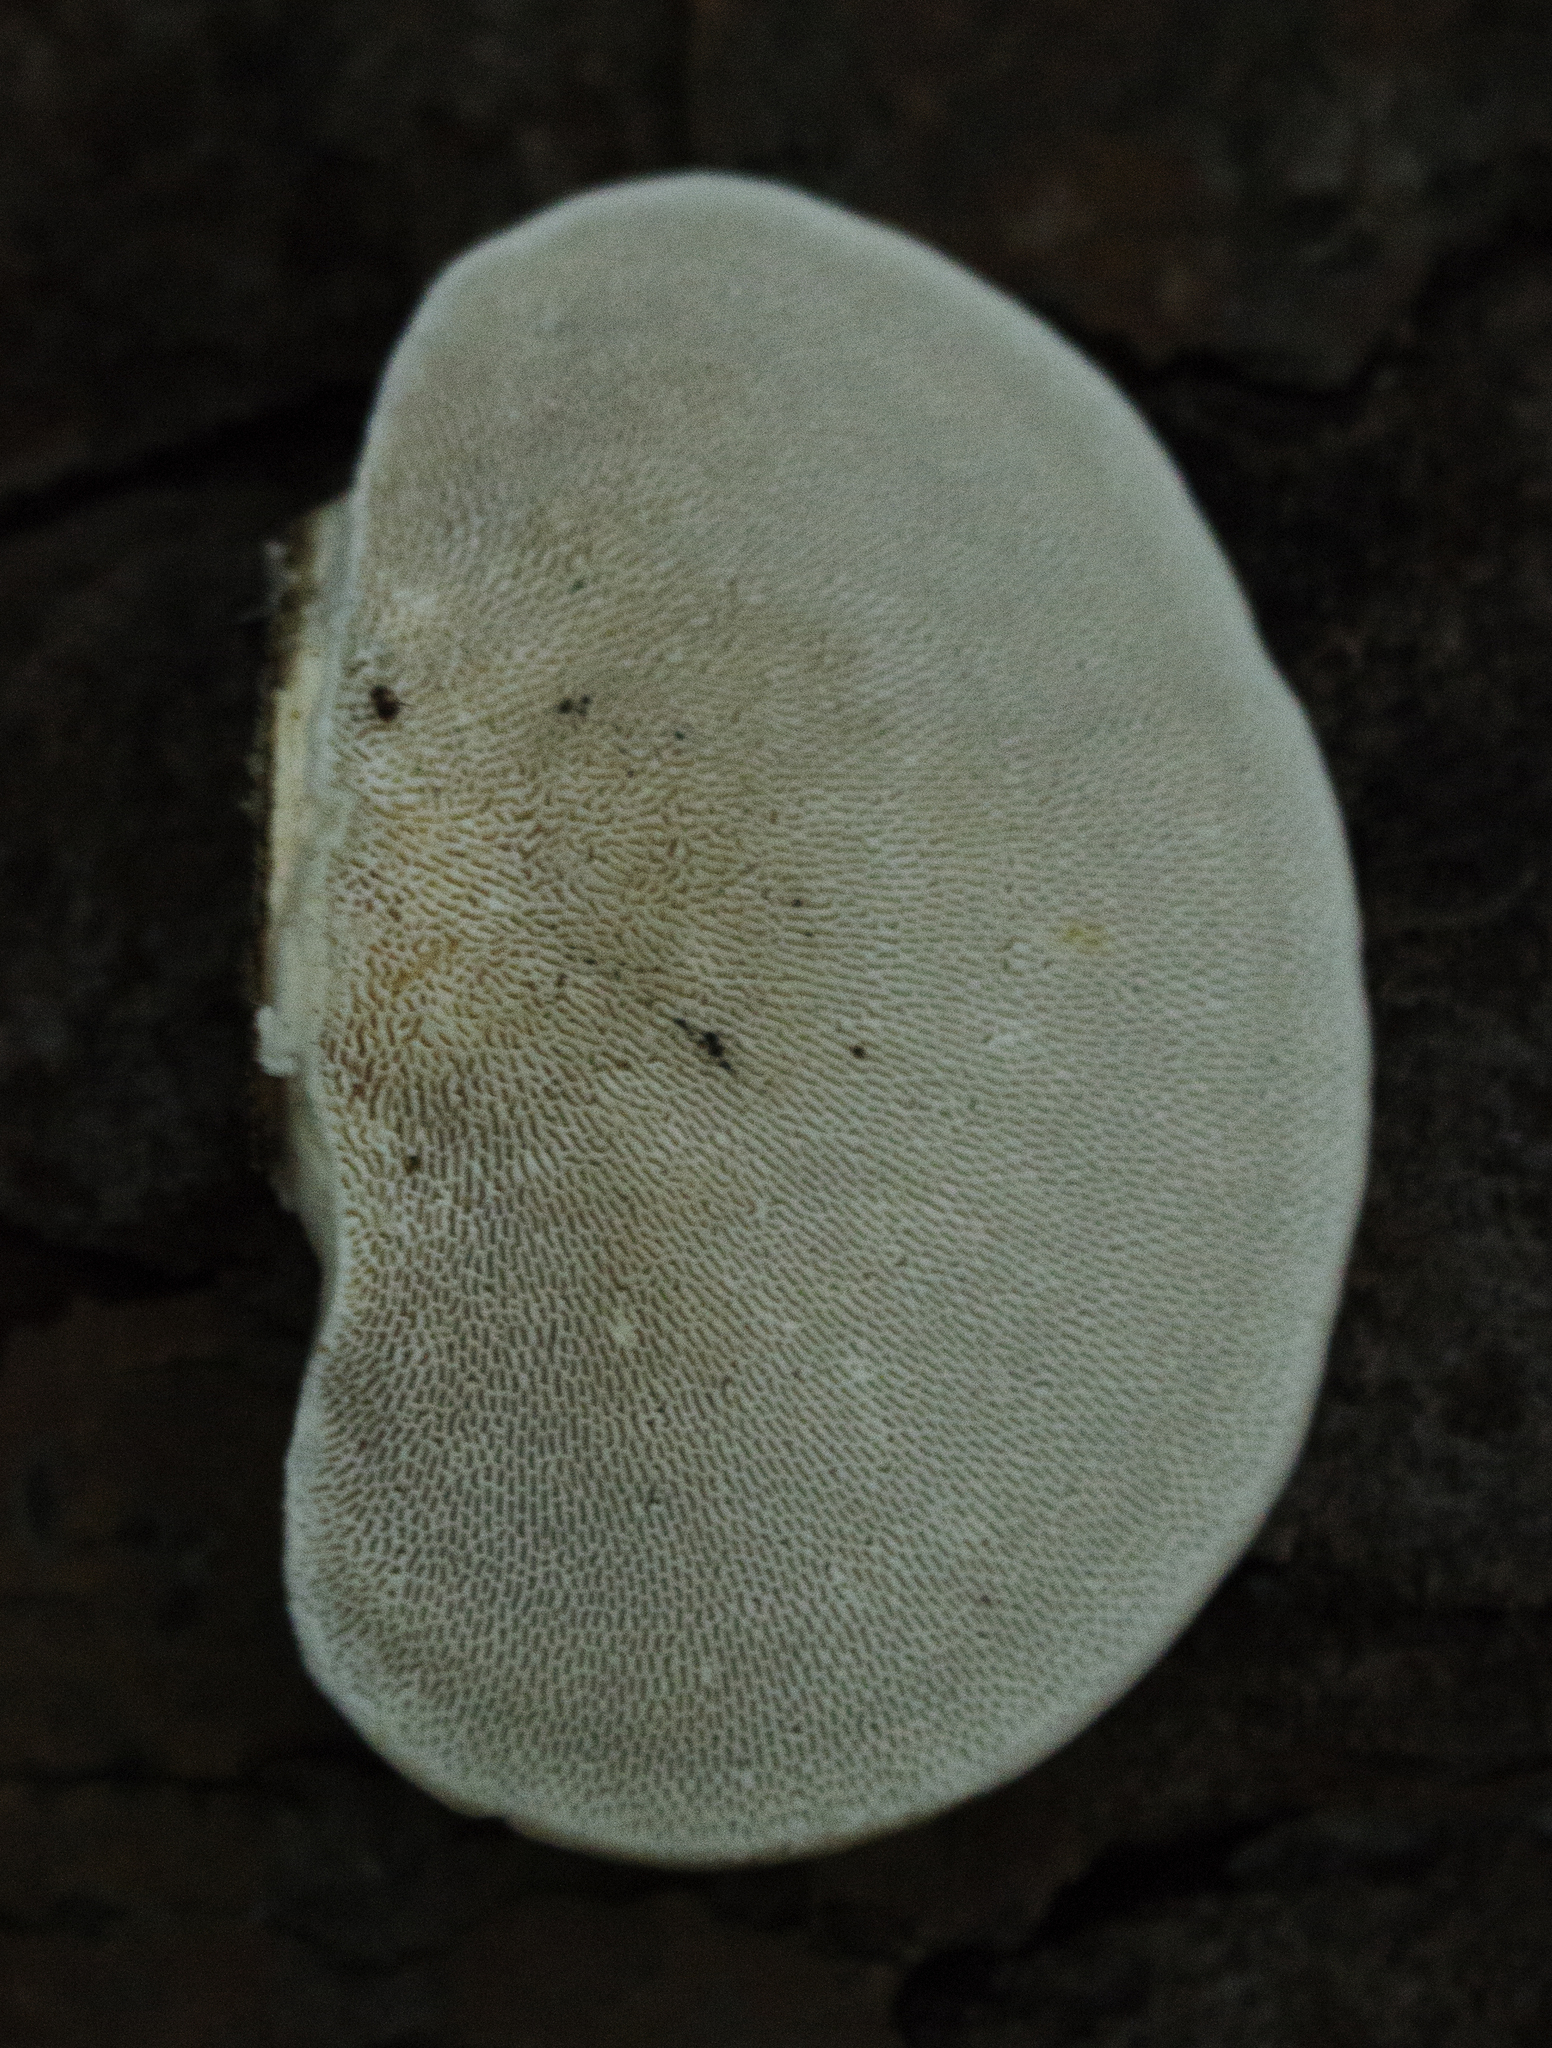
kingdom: Fungi
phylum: Basidiomycota
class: Agaricomycetes
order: Polyporales
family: Polyporaceae
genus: Trametes
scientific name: Trametes gibbosa
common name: Lumpy bracket
